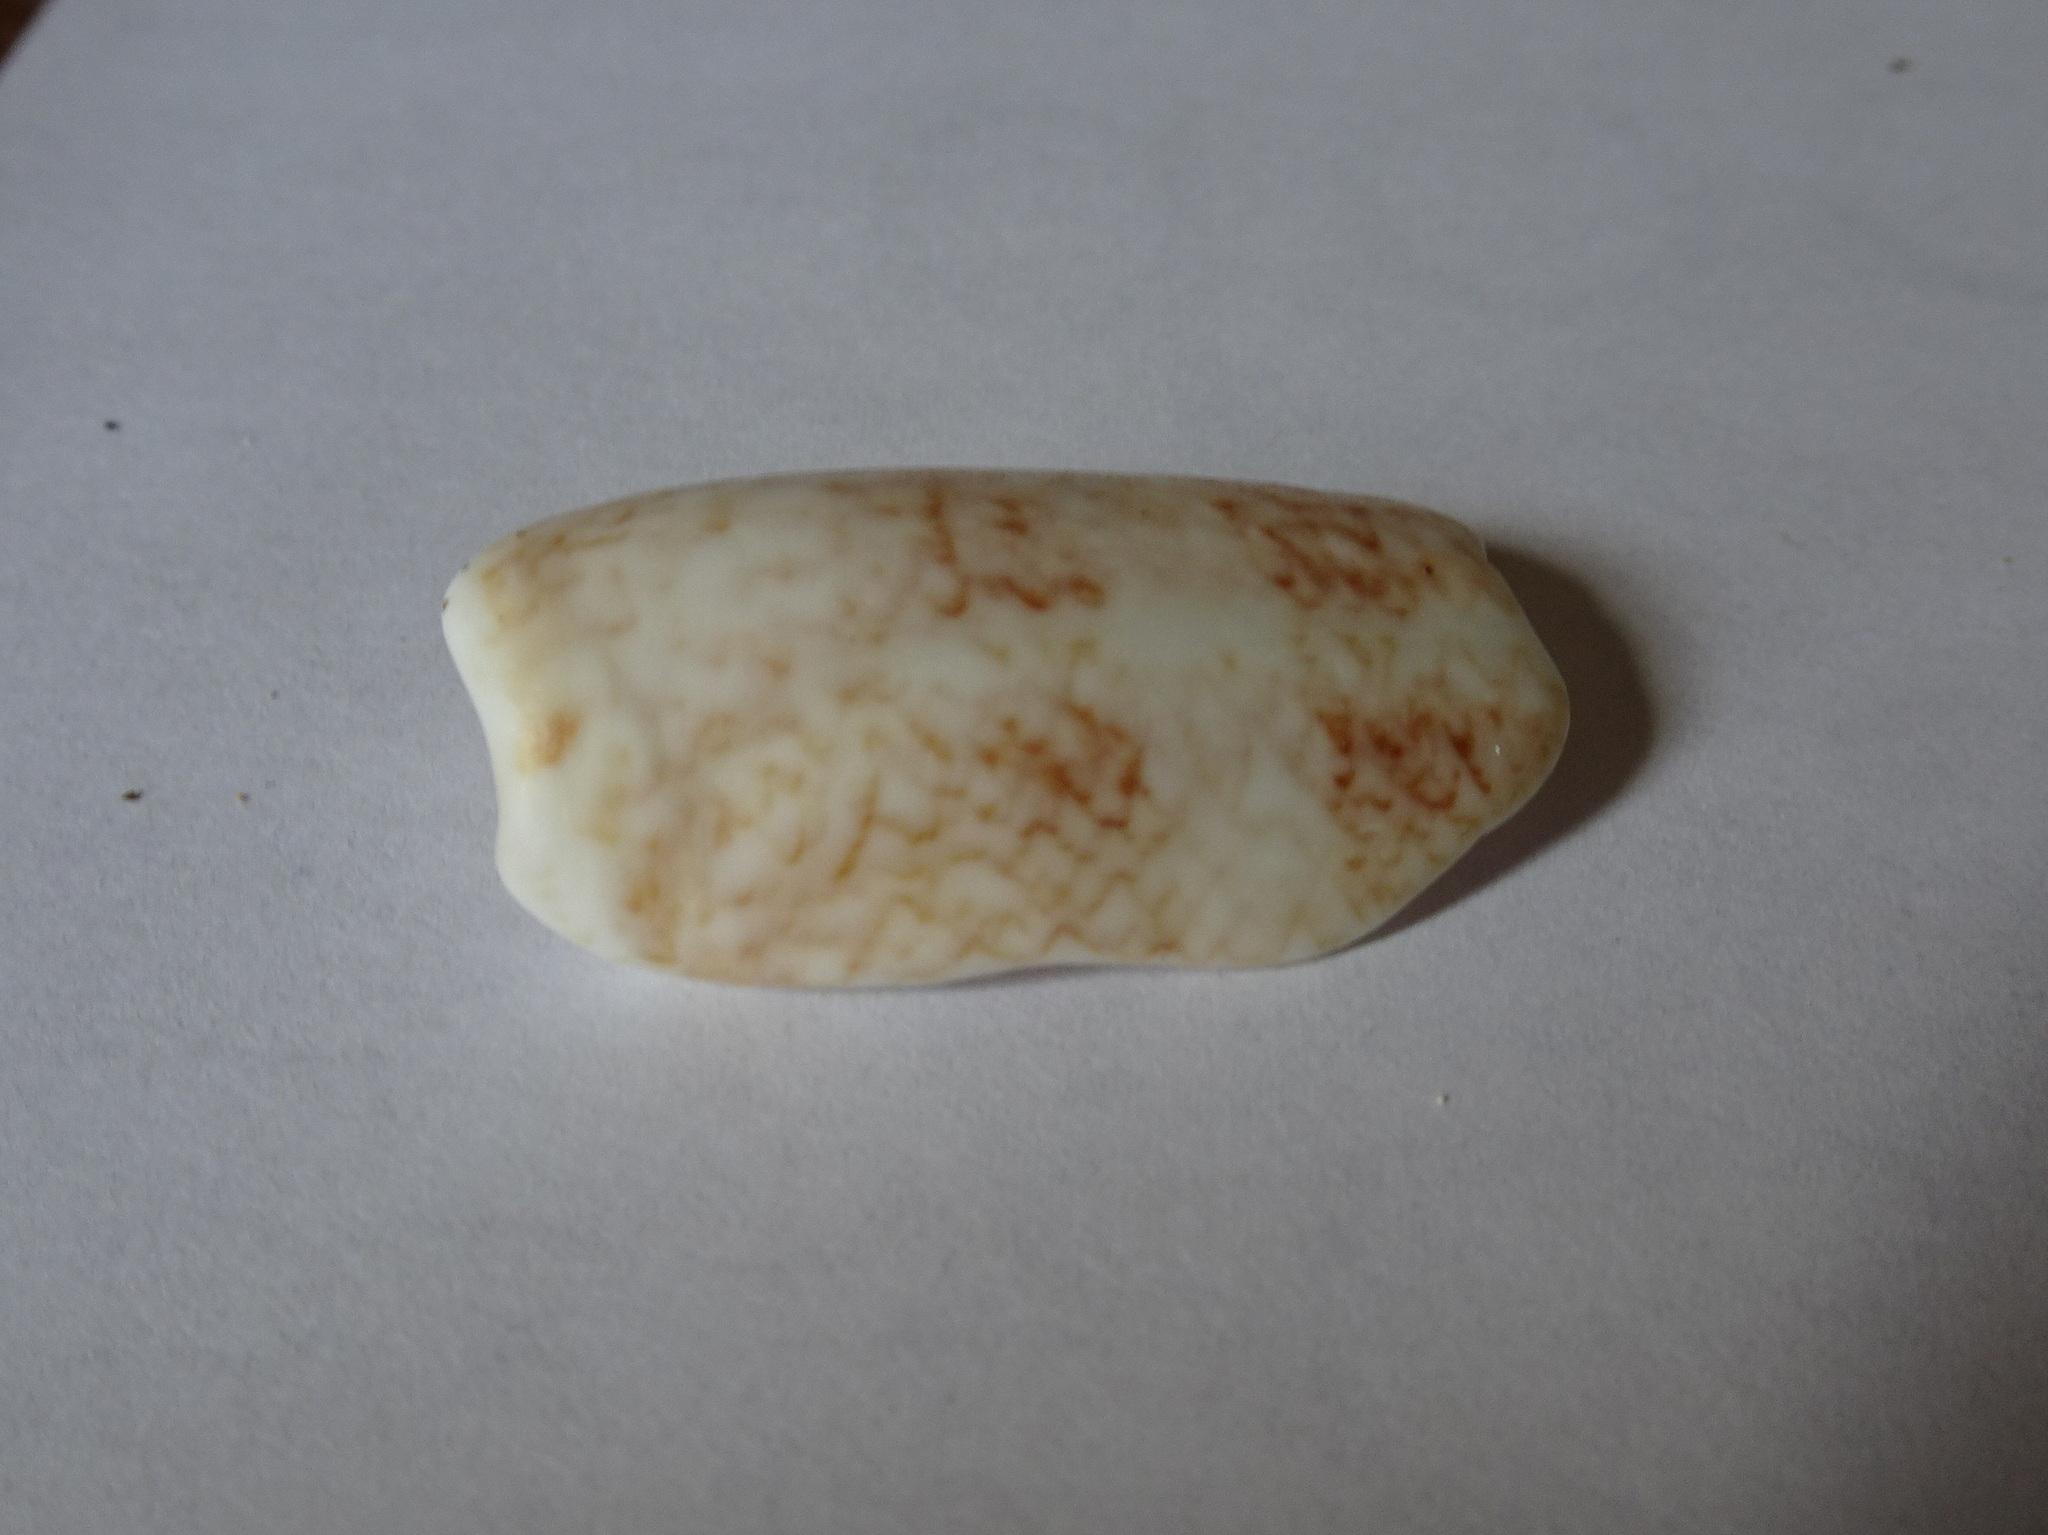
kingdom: Animalia
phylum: Mollusca
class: Gastropoda
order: Neogastropoda
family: Olividae
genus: Oliva
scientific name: Oliva sayana
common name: Lettered olive
